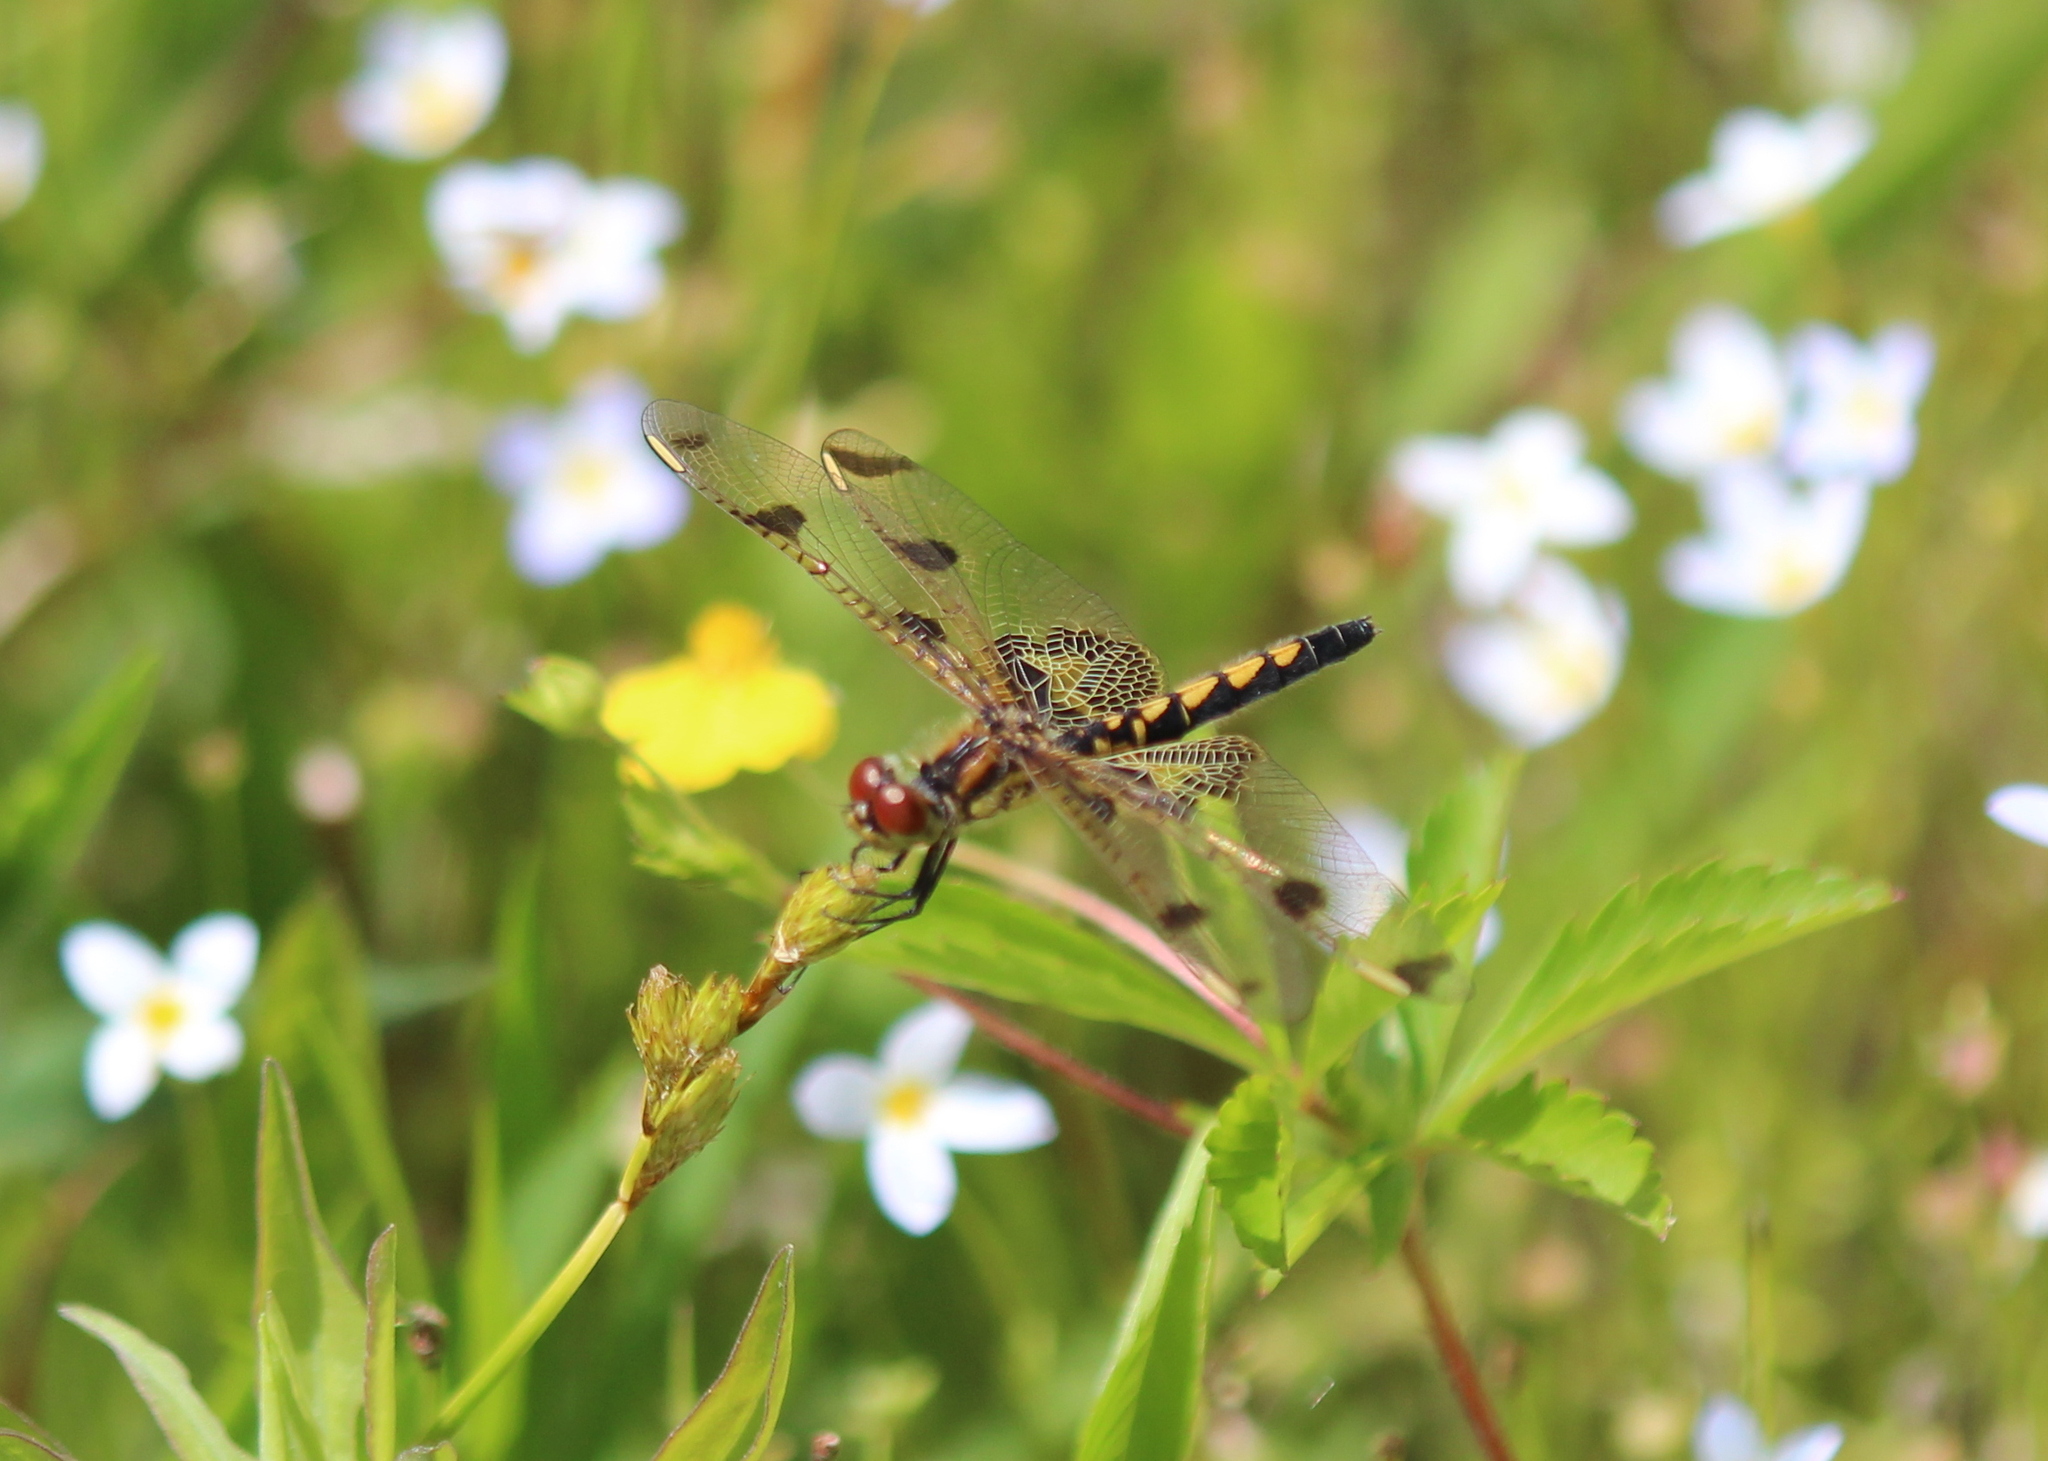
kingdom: Animalia
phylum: Arthropoda
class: Insecta
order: Odonata
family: Libellulidae
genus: Celithemis
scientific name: Celithemis elisa
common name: Calico pennant
